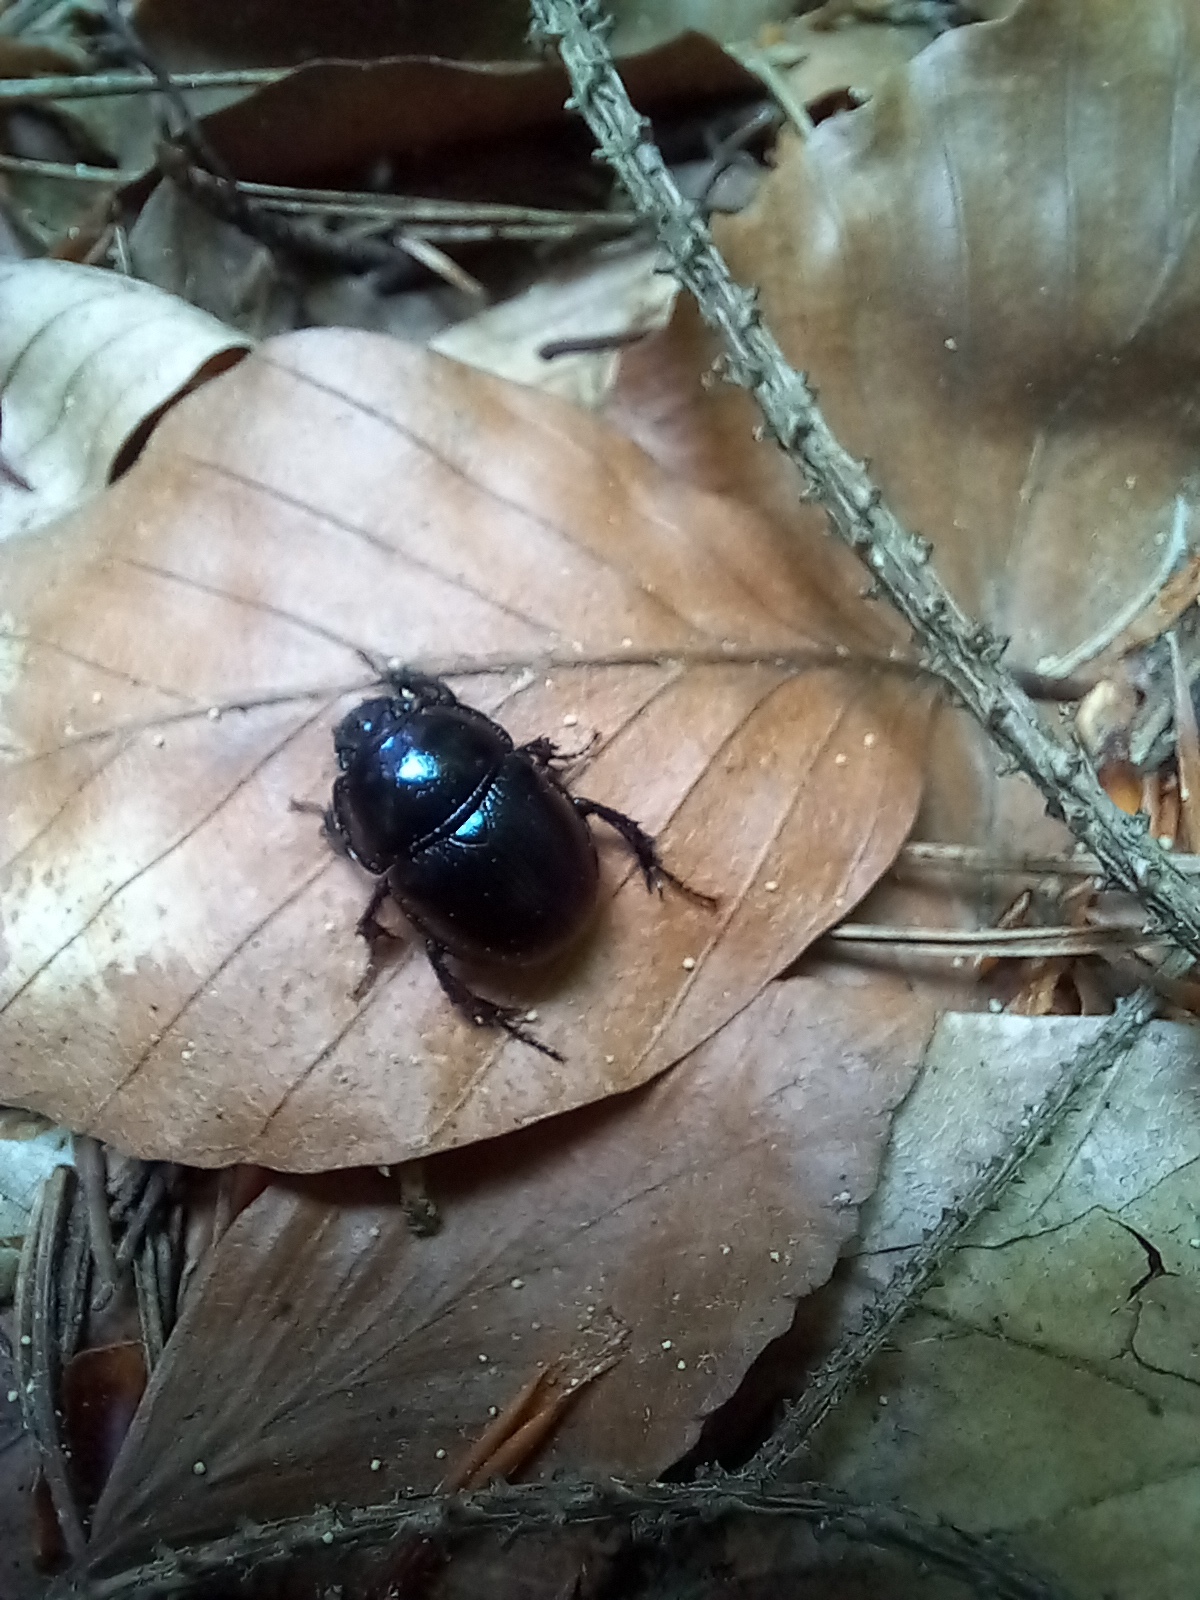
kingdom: Animalia
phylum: Arthropoda
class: Insecta
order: Coleoptera
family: Geotrupidae
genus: Anoplotrupes
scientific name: Anoplotrupes stercorosus
